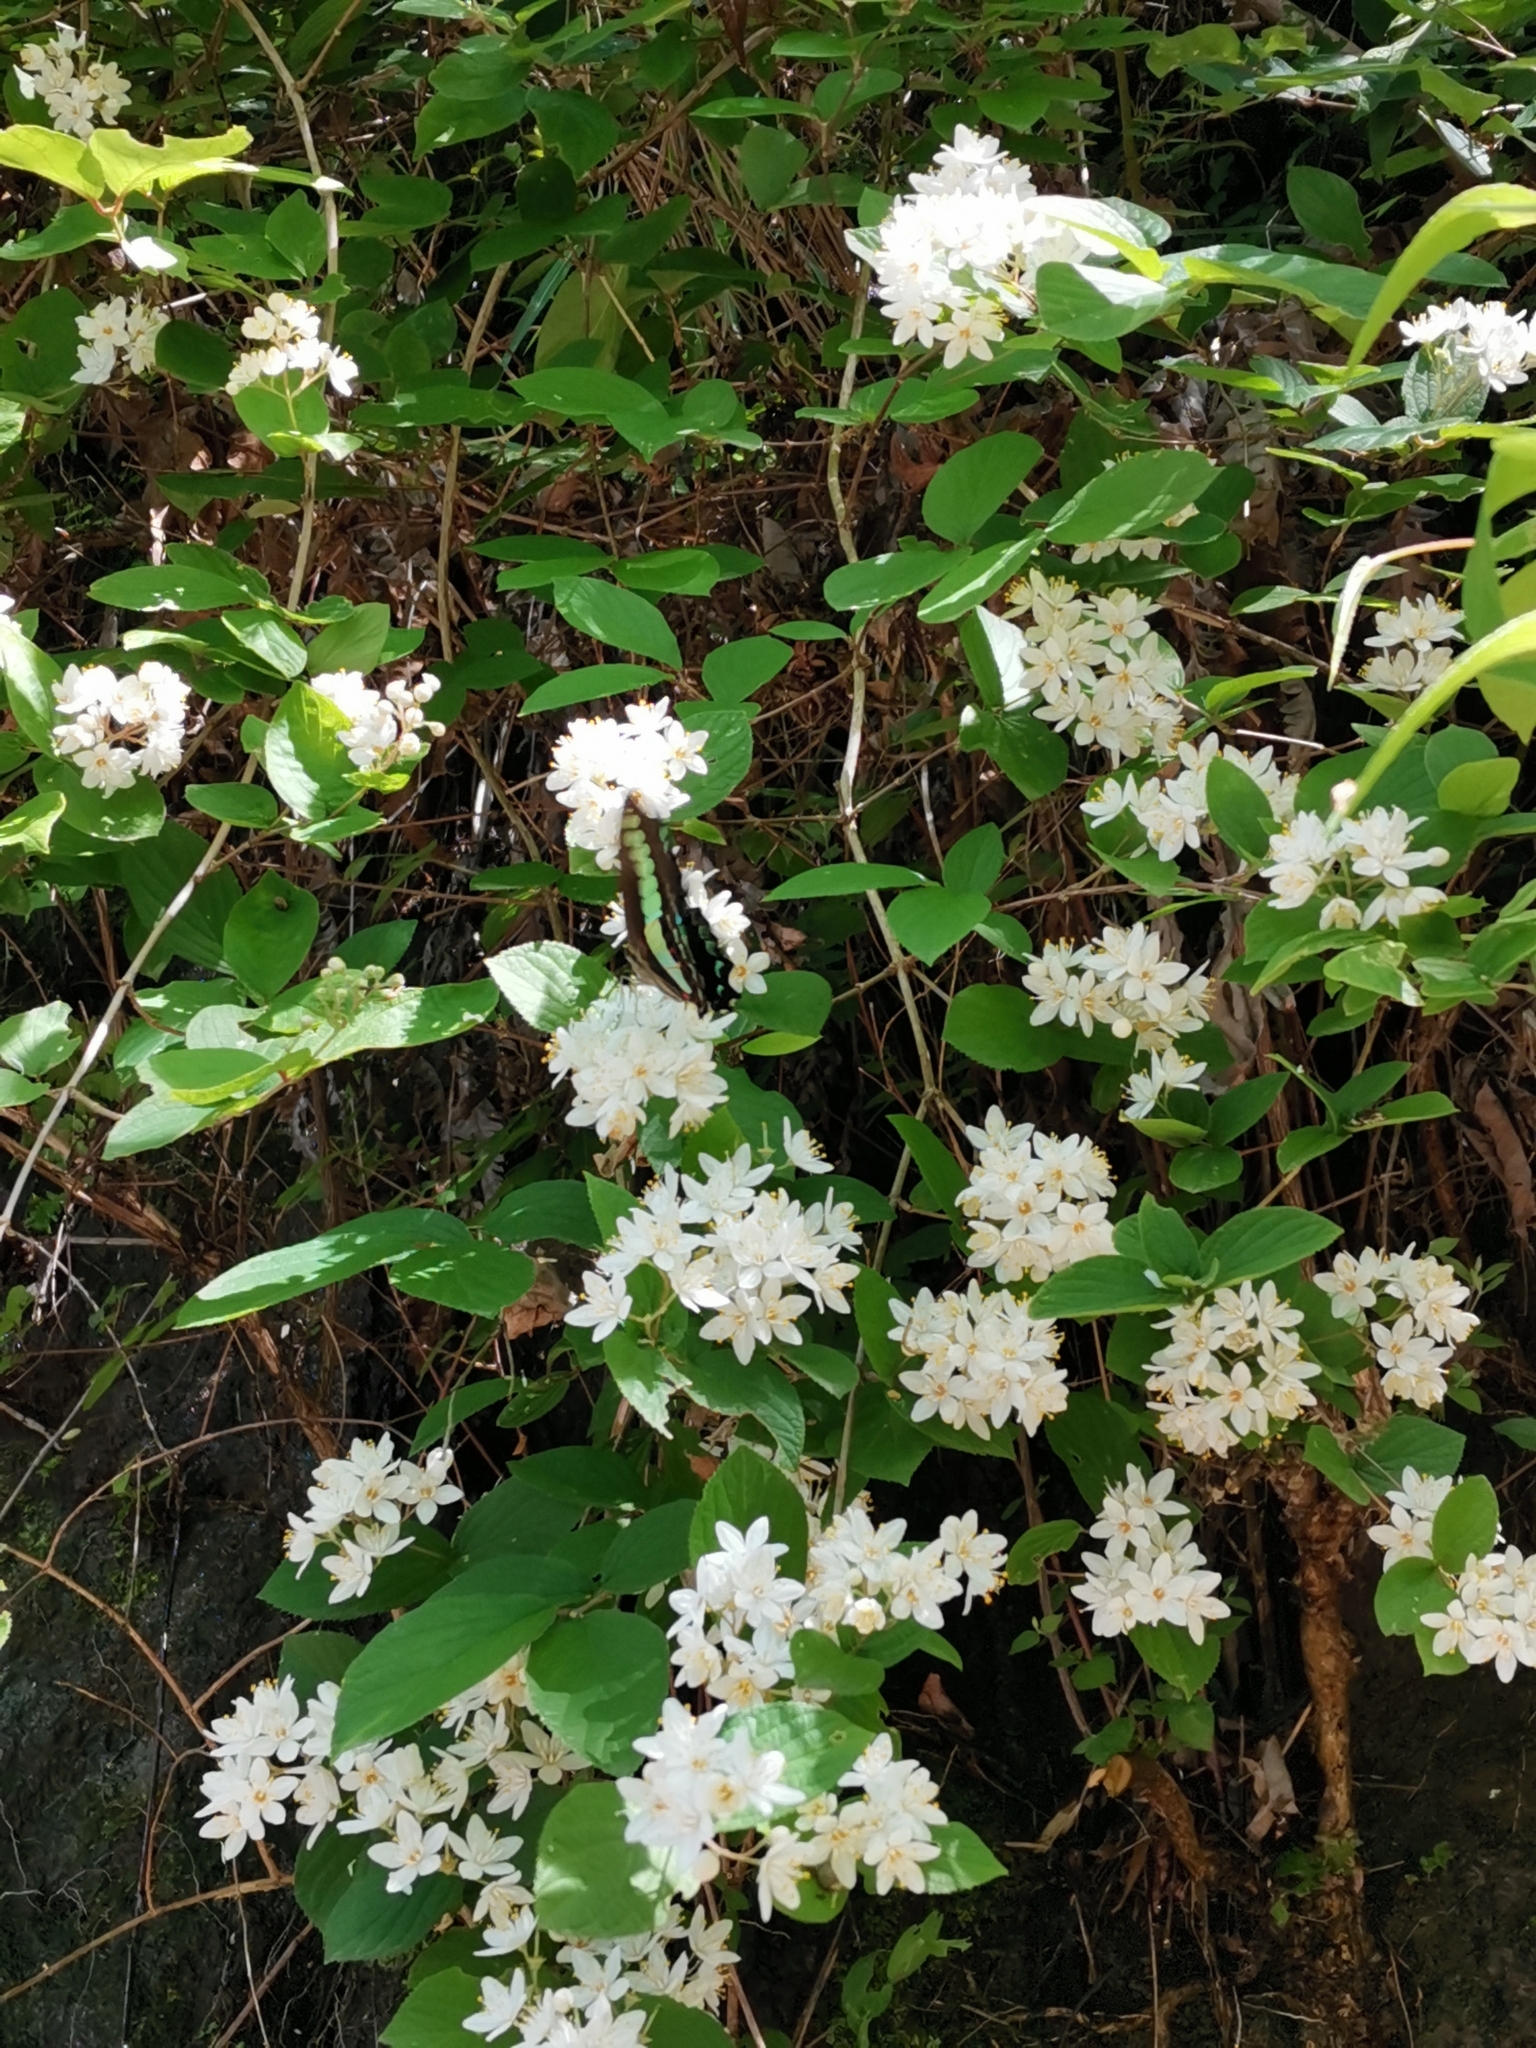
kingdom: Fungi
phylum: Ascomycota
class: Sordariomycetes
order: Microascales
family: Microascaceae
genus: Graphium
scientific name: Graphium sarpedon
